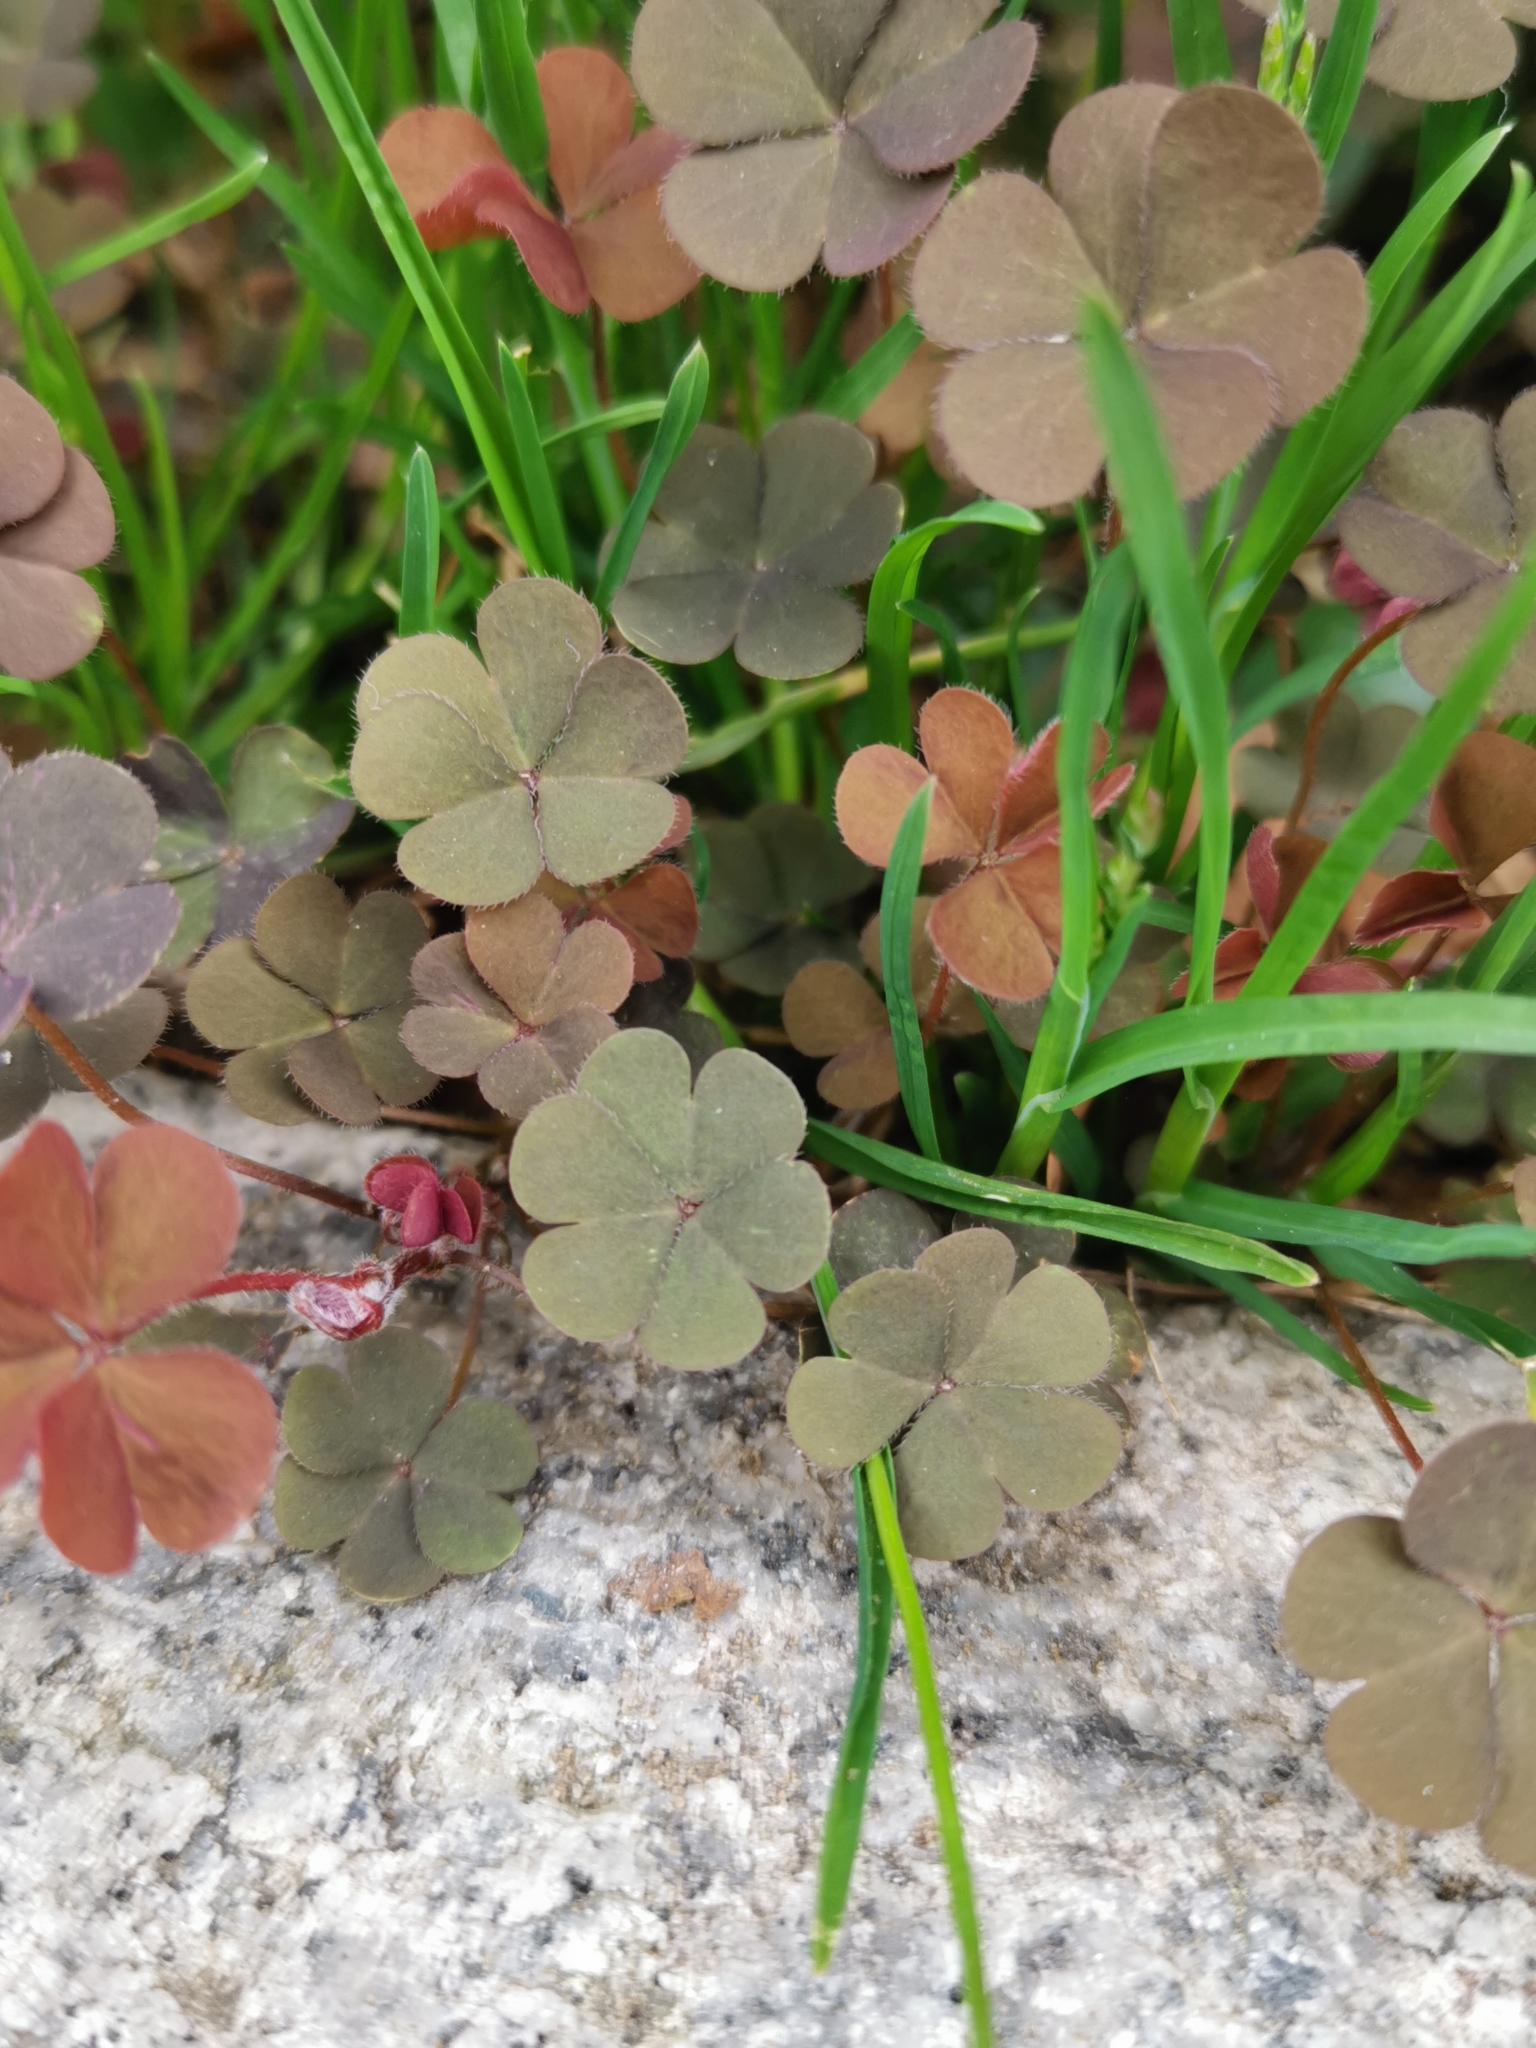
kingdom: Plantae
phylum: Tracheophyta
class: Magnoliopsida
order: Oxalidales
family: Oxalidaceae
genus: Oxalis
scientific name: Oxalis corniculata
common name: Procumbent yellow-sorrel
